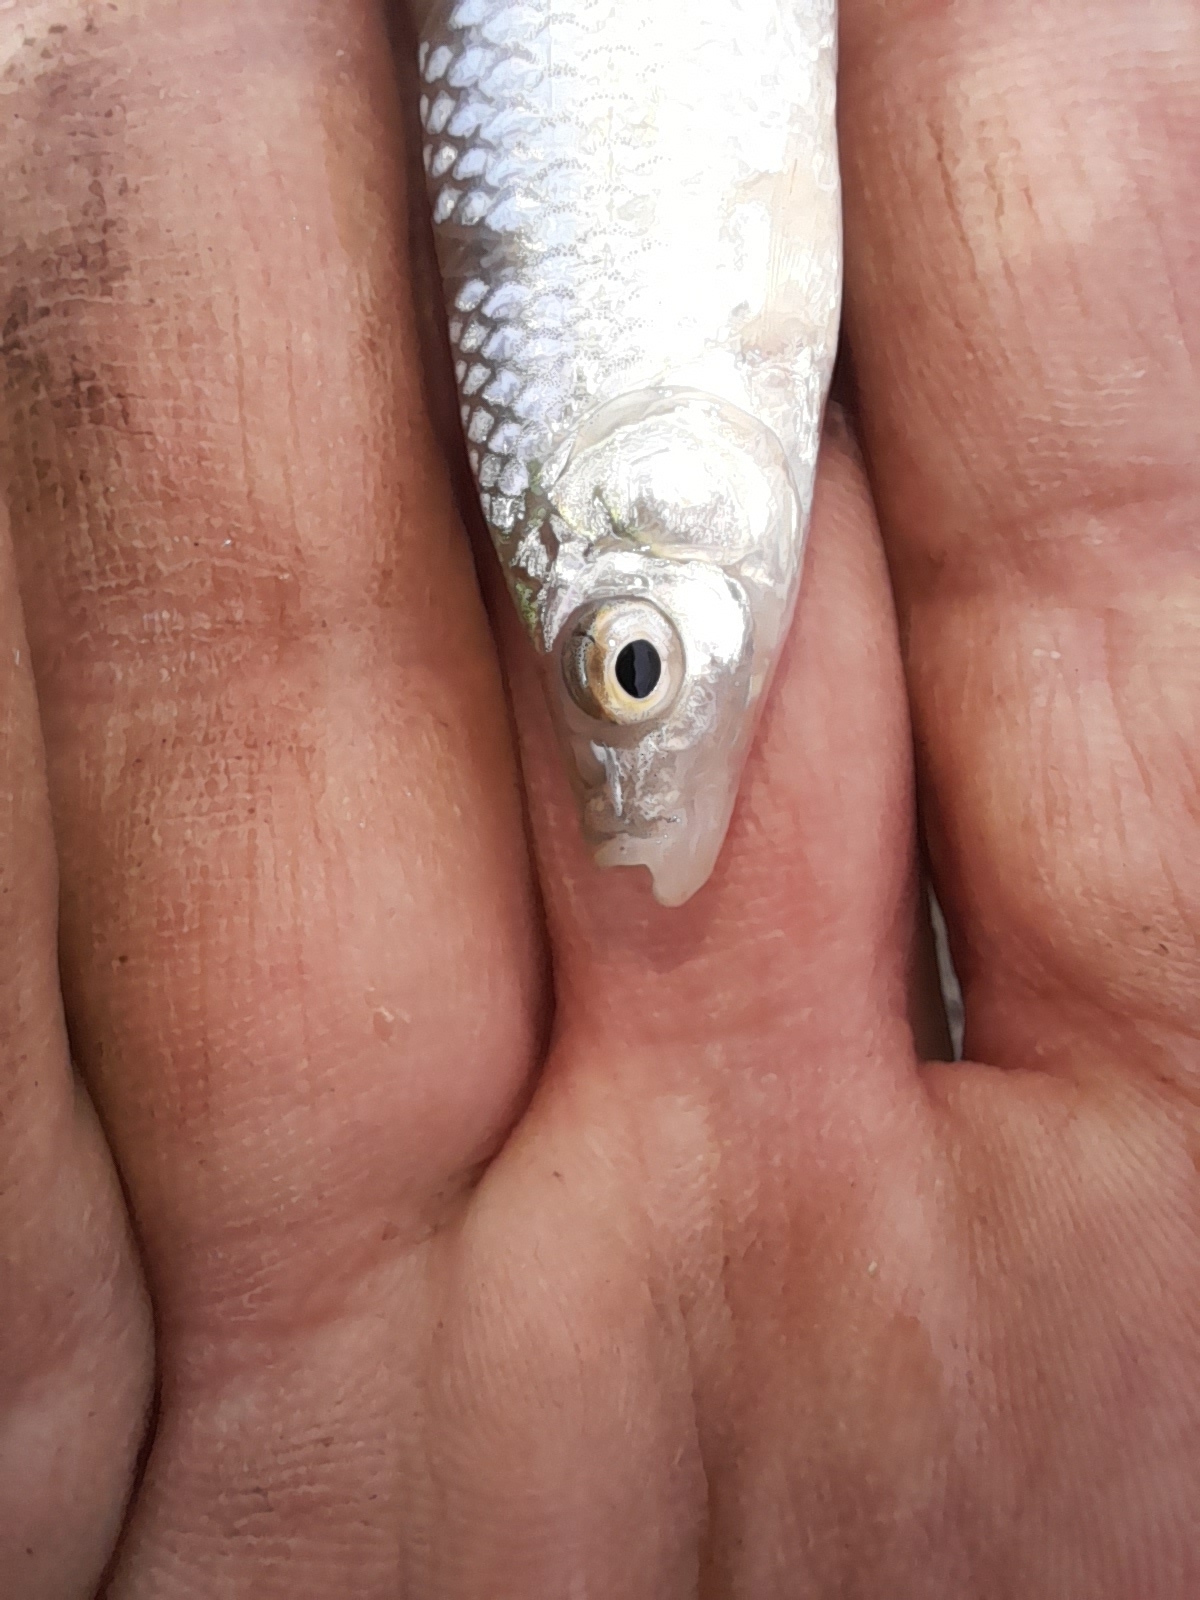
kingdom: Animalia
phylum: Chordata
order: Cypriniformes
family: Cyprinidae
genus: Pseudorasbora
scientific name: Pseudorasbora parva
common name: Topmouth gudgeon
